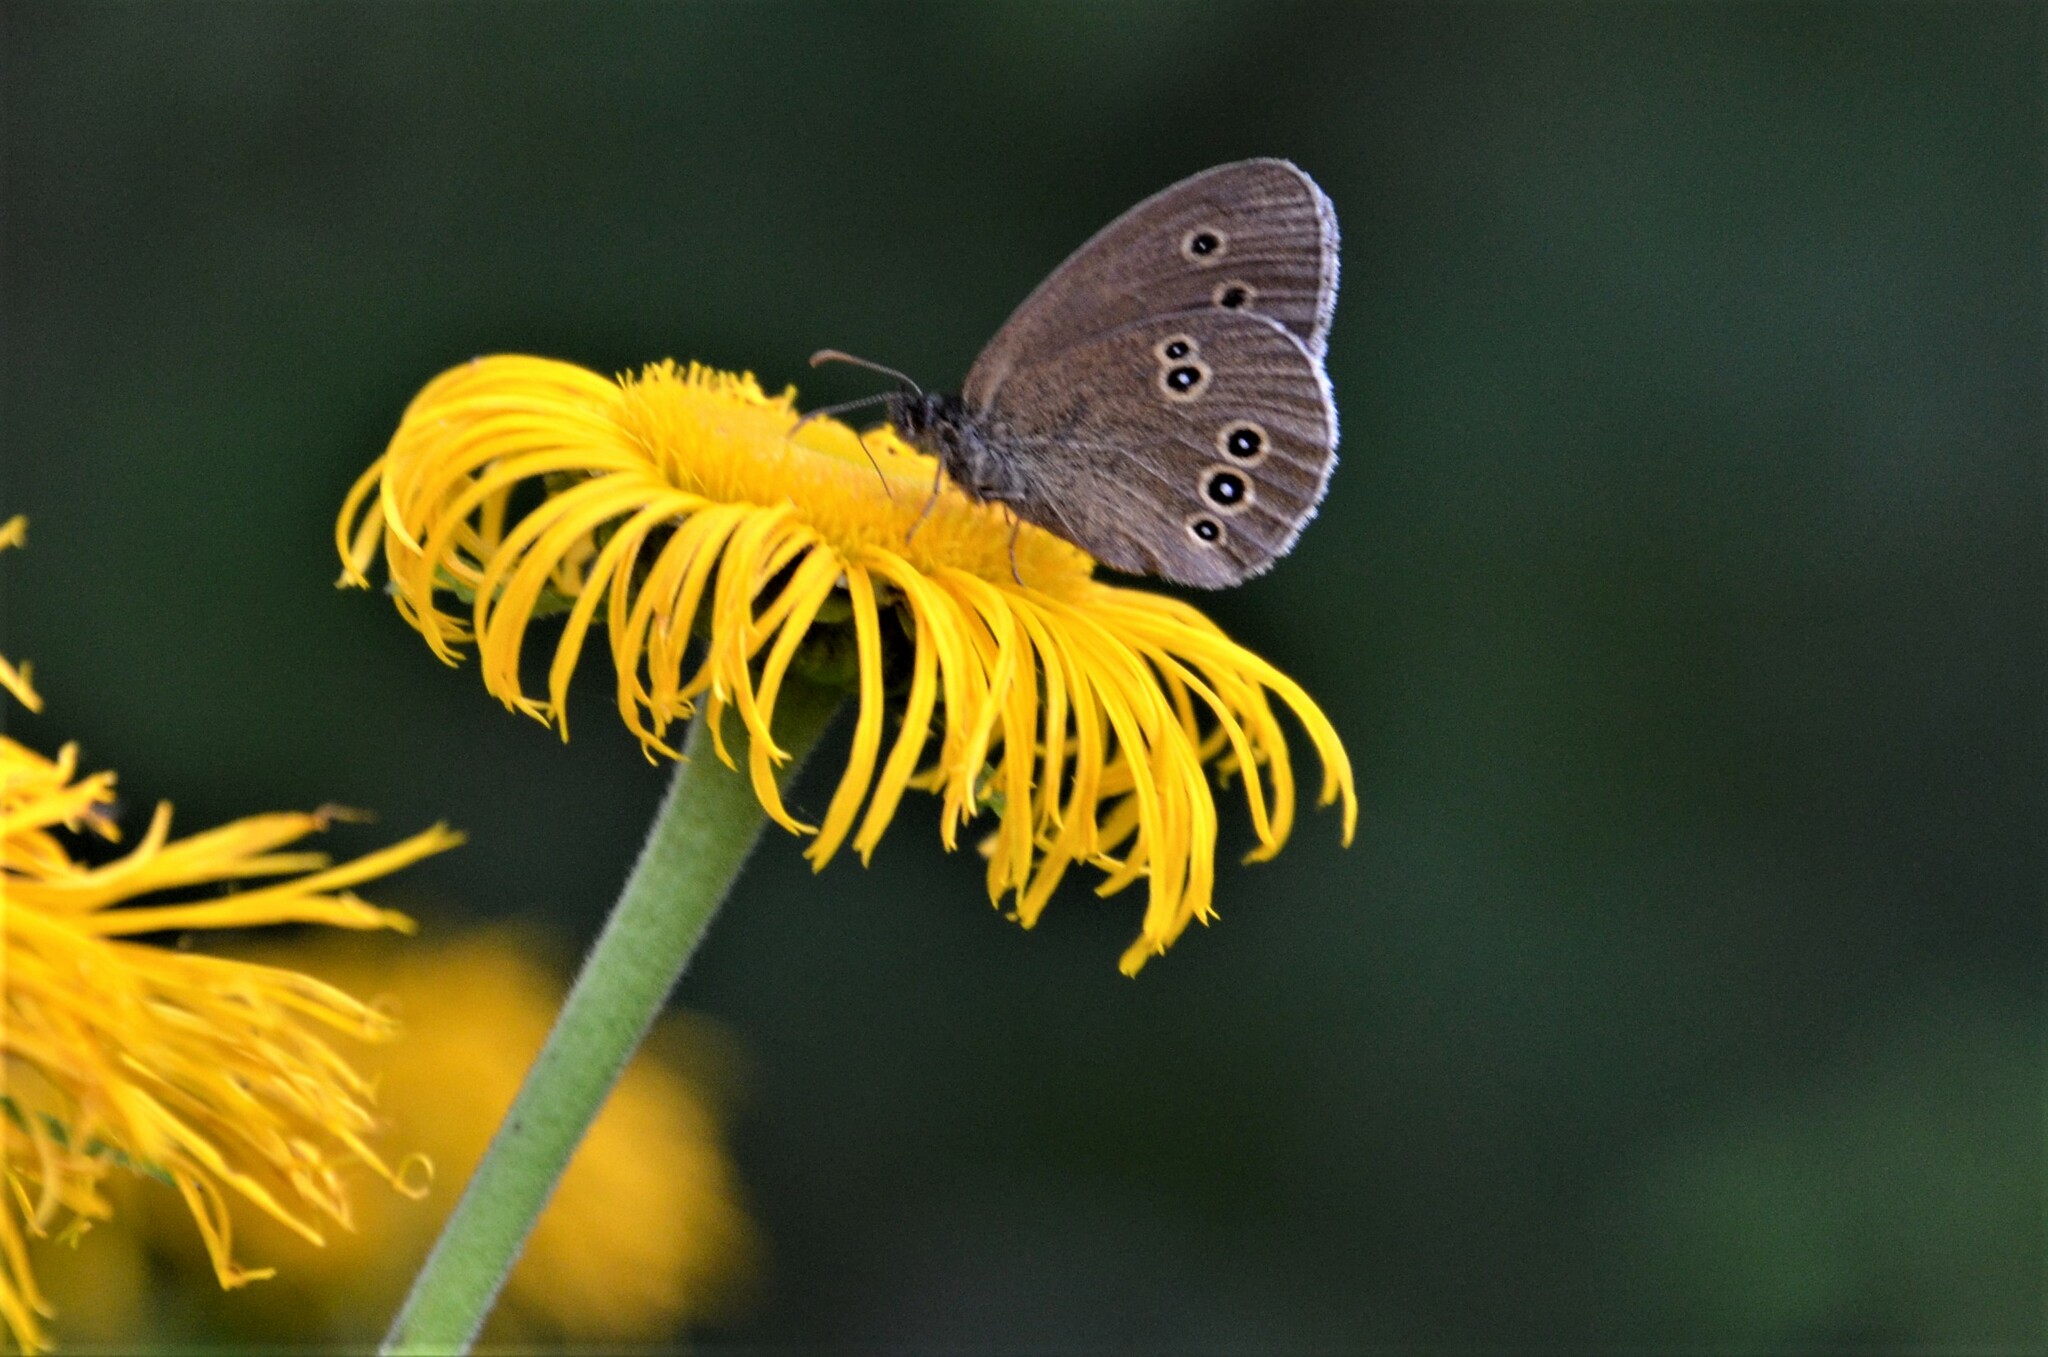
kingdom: Animalia
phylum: Arthropoda
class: Insecta
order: Lepidoptera
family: Nymphalidae
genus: Aphantopus
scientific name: Aphantopus hyperantus
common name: Ringlet
